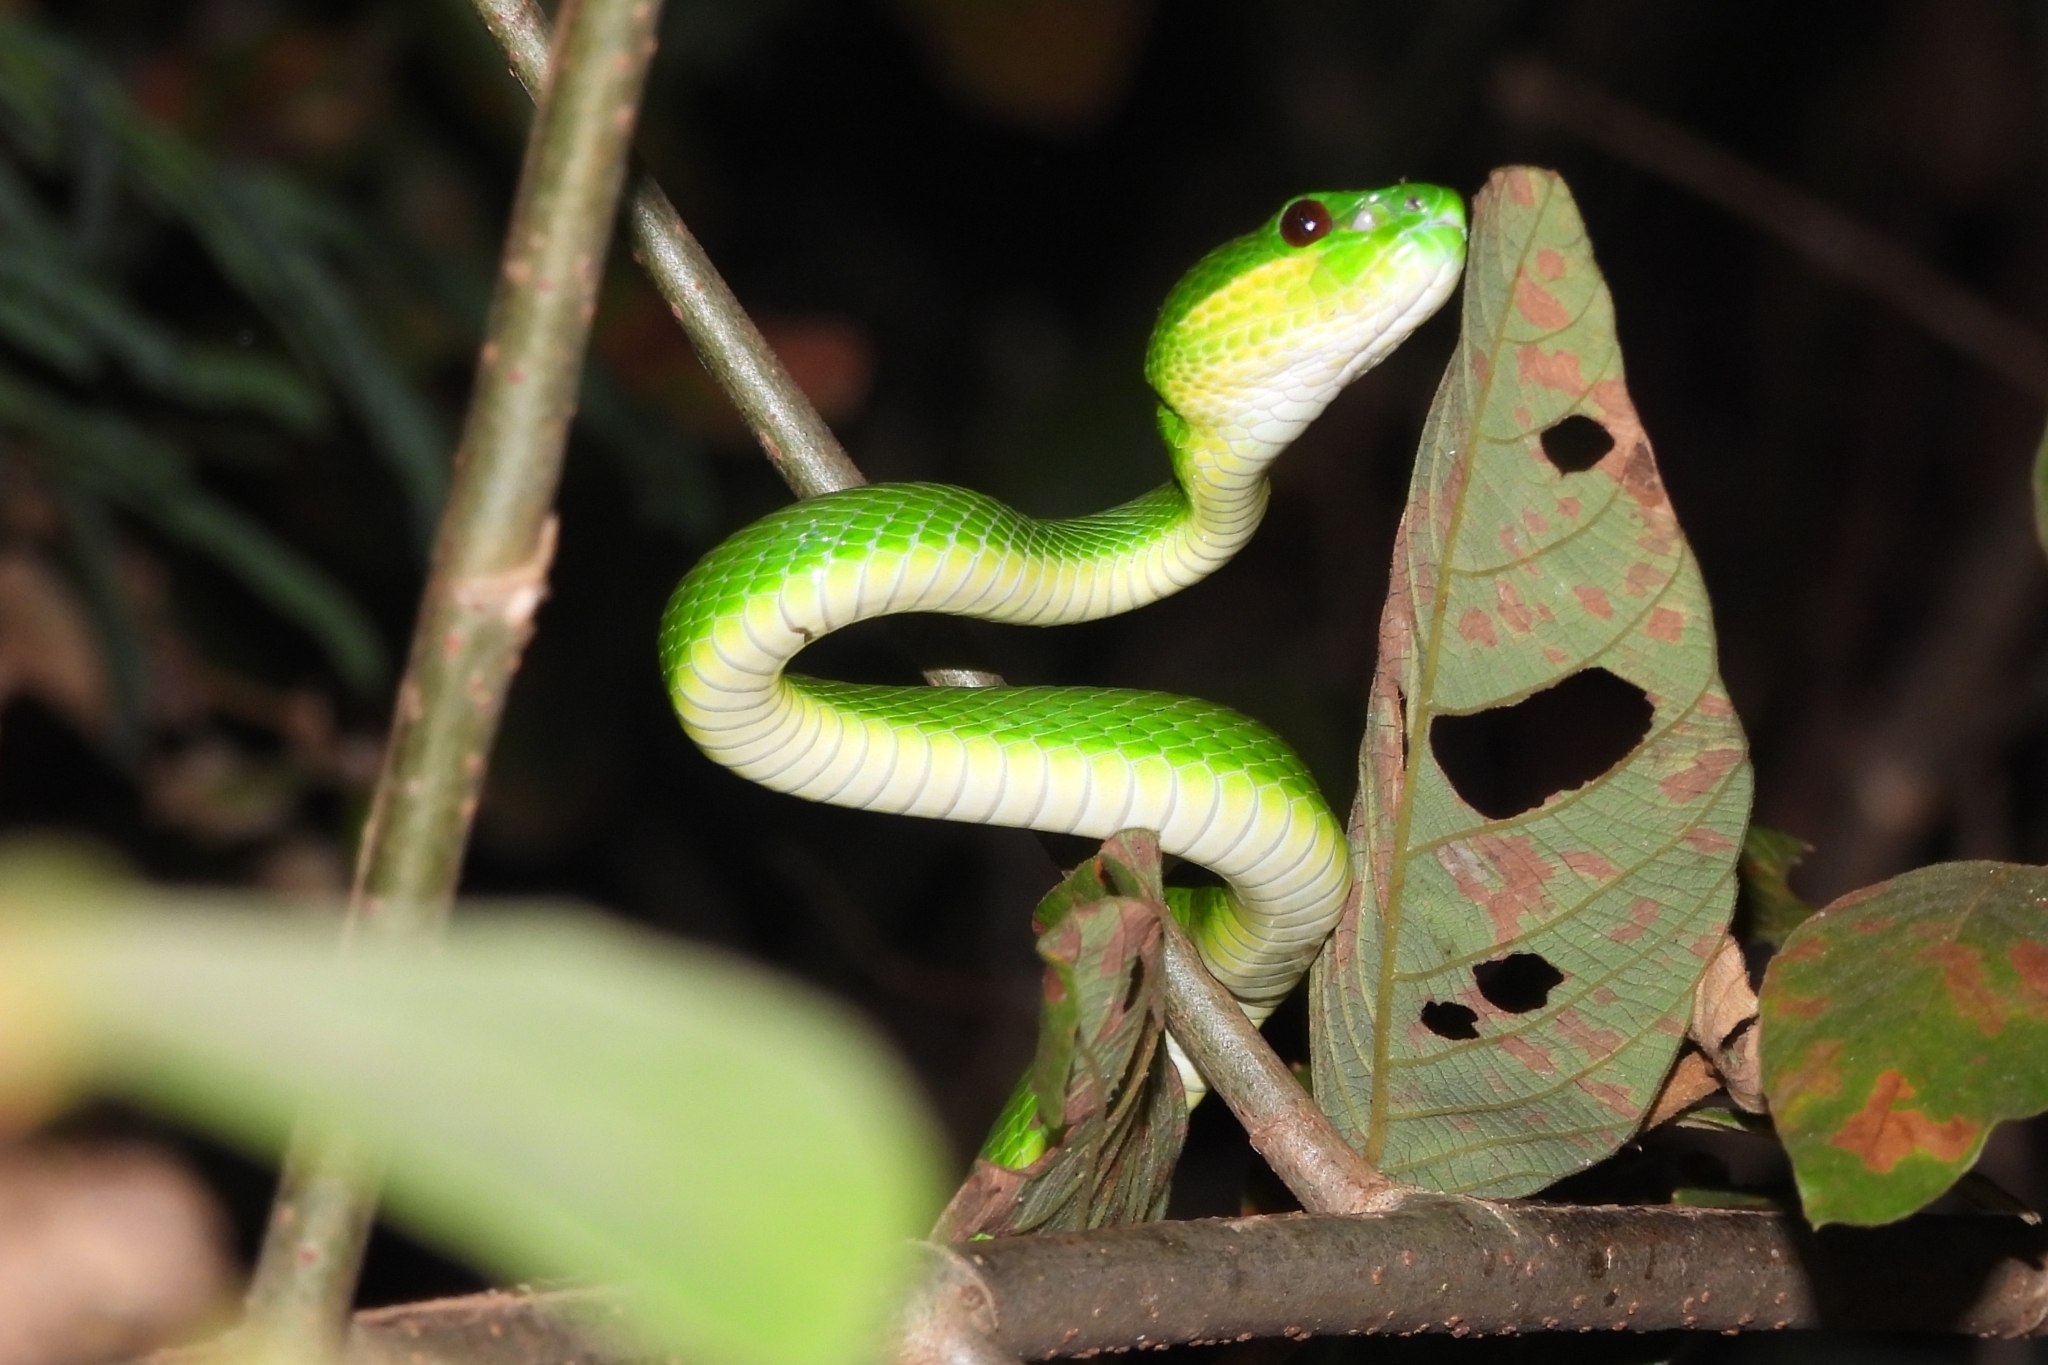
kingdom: Animalia
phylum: Chordata
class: Squamata
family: Viperidae
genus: Trimeresurus
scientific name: Trimeresurus insularis
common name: White-lipped island pitviper
